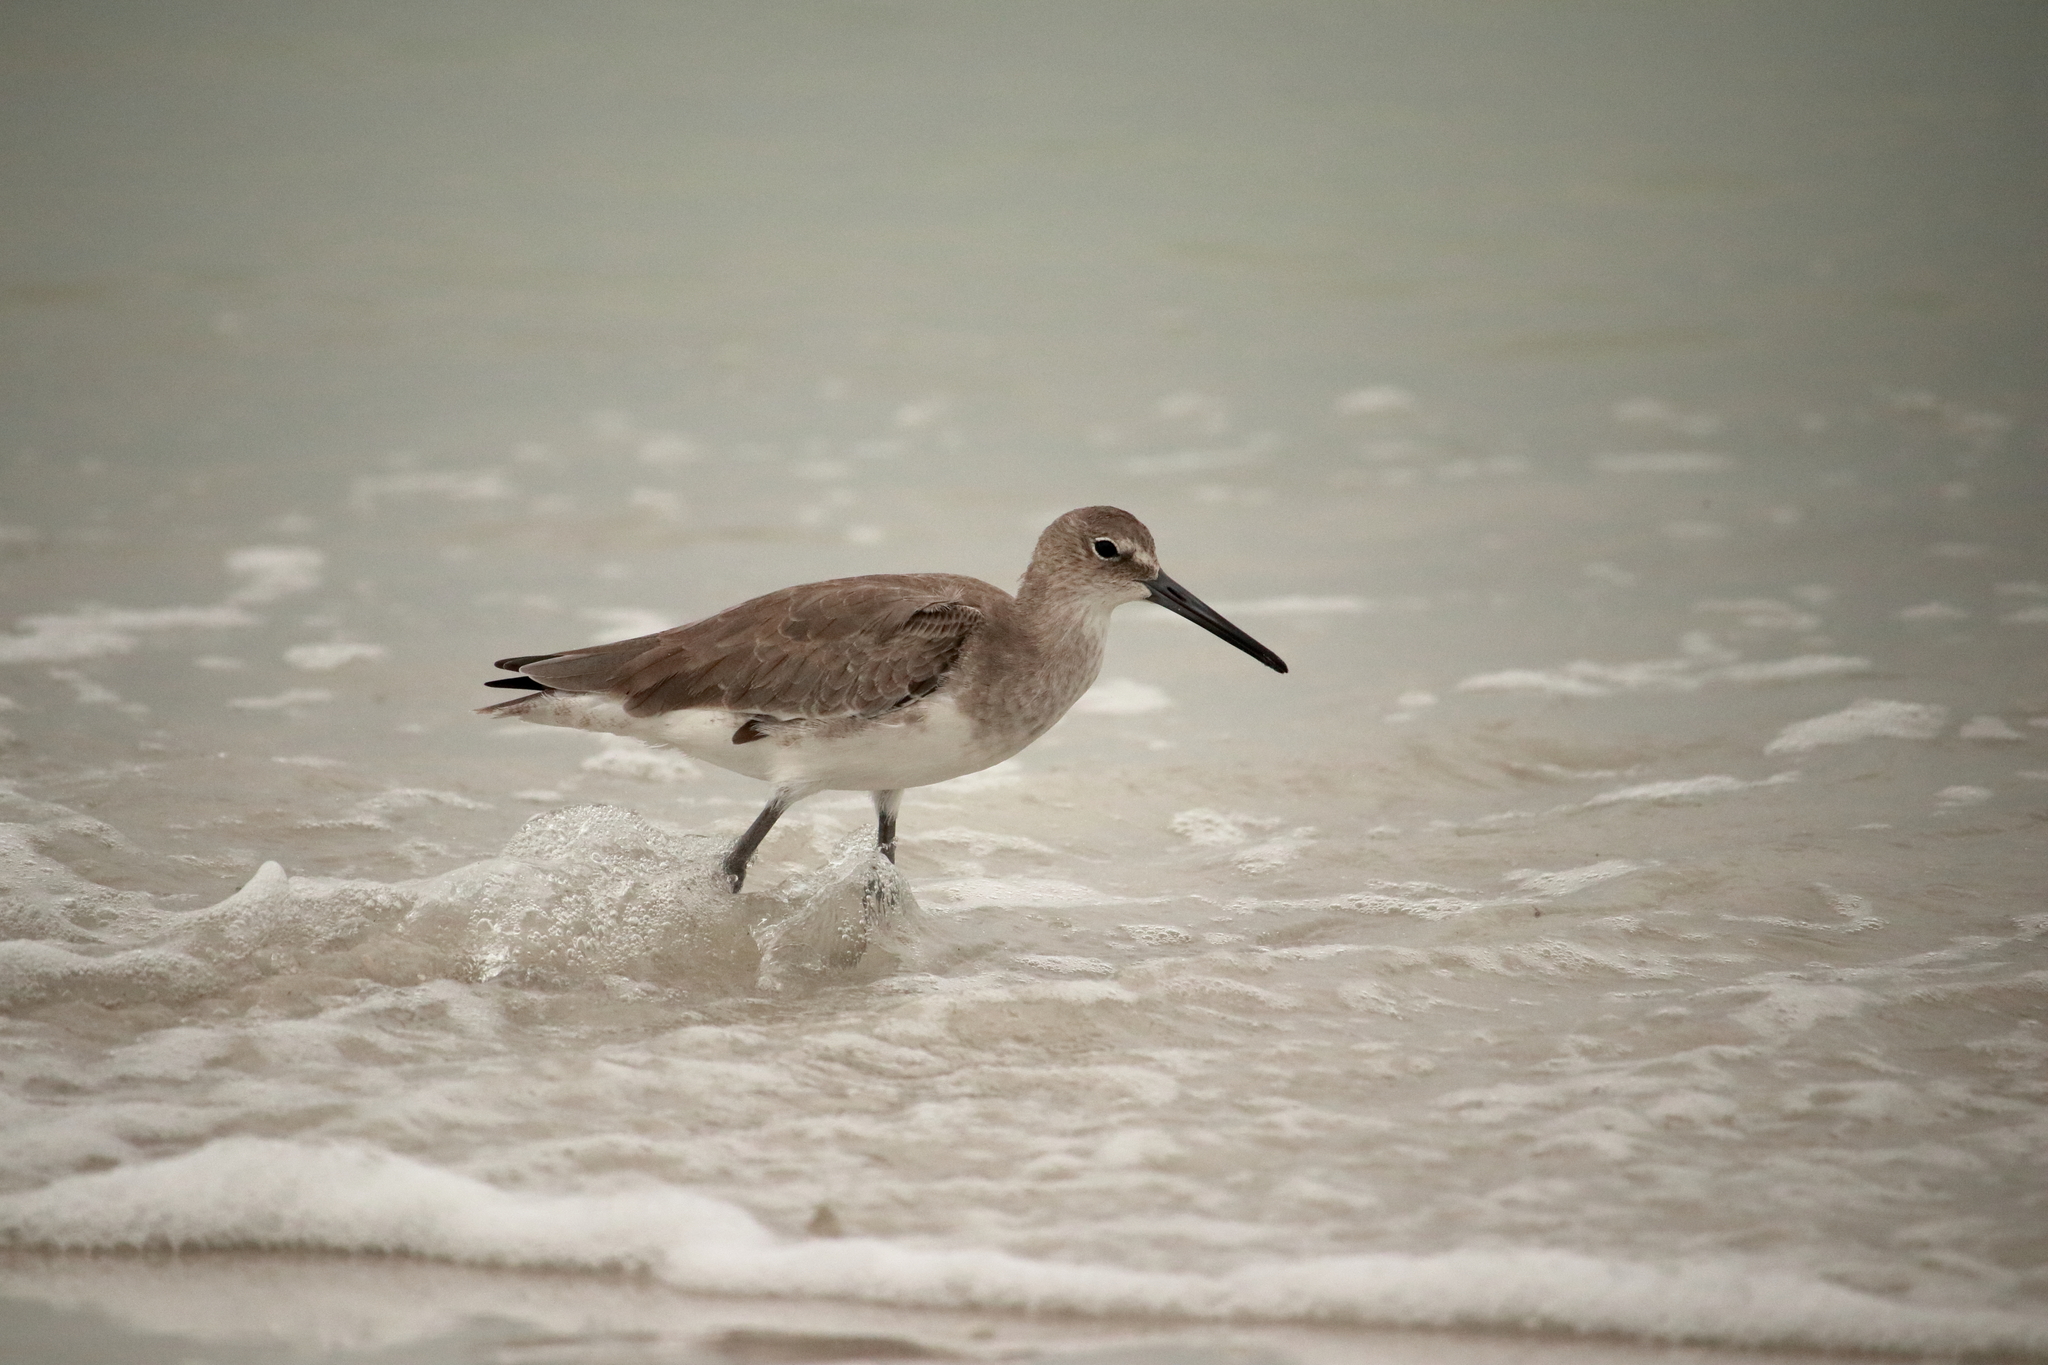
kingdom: Animalia
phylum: Chordata
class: Aves
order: Charadriiformes
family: Scolopacidae
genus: Tringa
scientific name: Tringa semipalmata
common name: Willet
